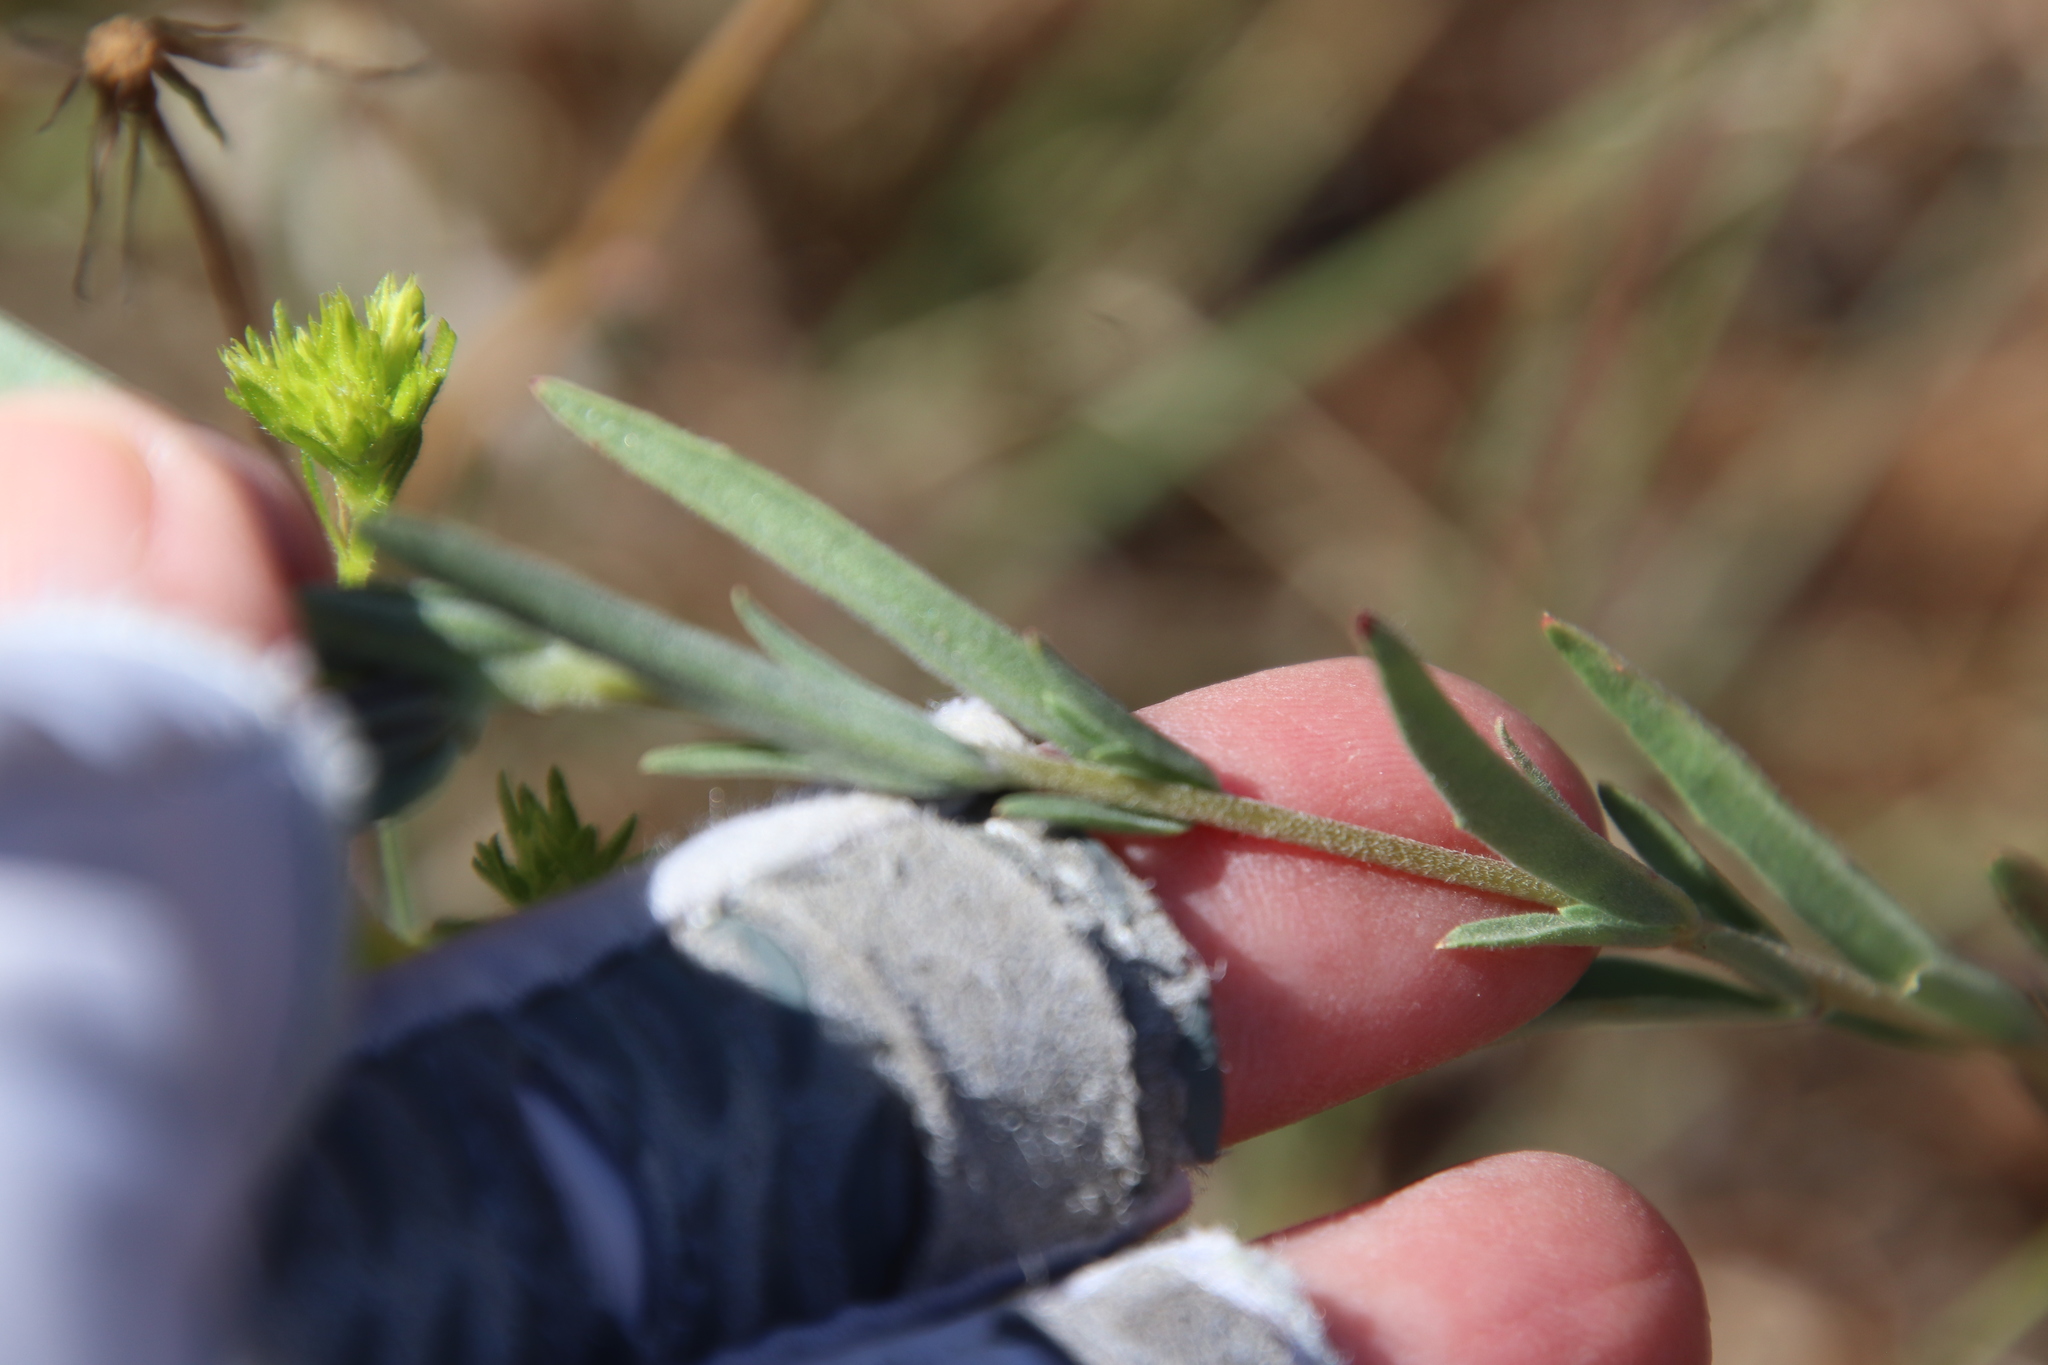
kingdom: Plantae
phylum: Tracheophyta
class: Magnoliopsida
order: Myrtales
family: Onagraceae
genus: Clarkia
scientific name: Clarkia purpurea
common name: Purple clarkia
